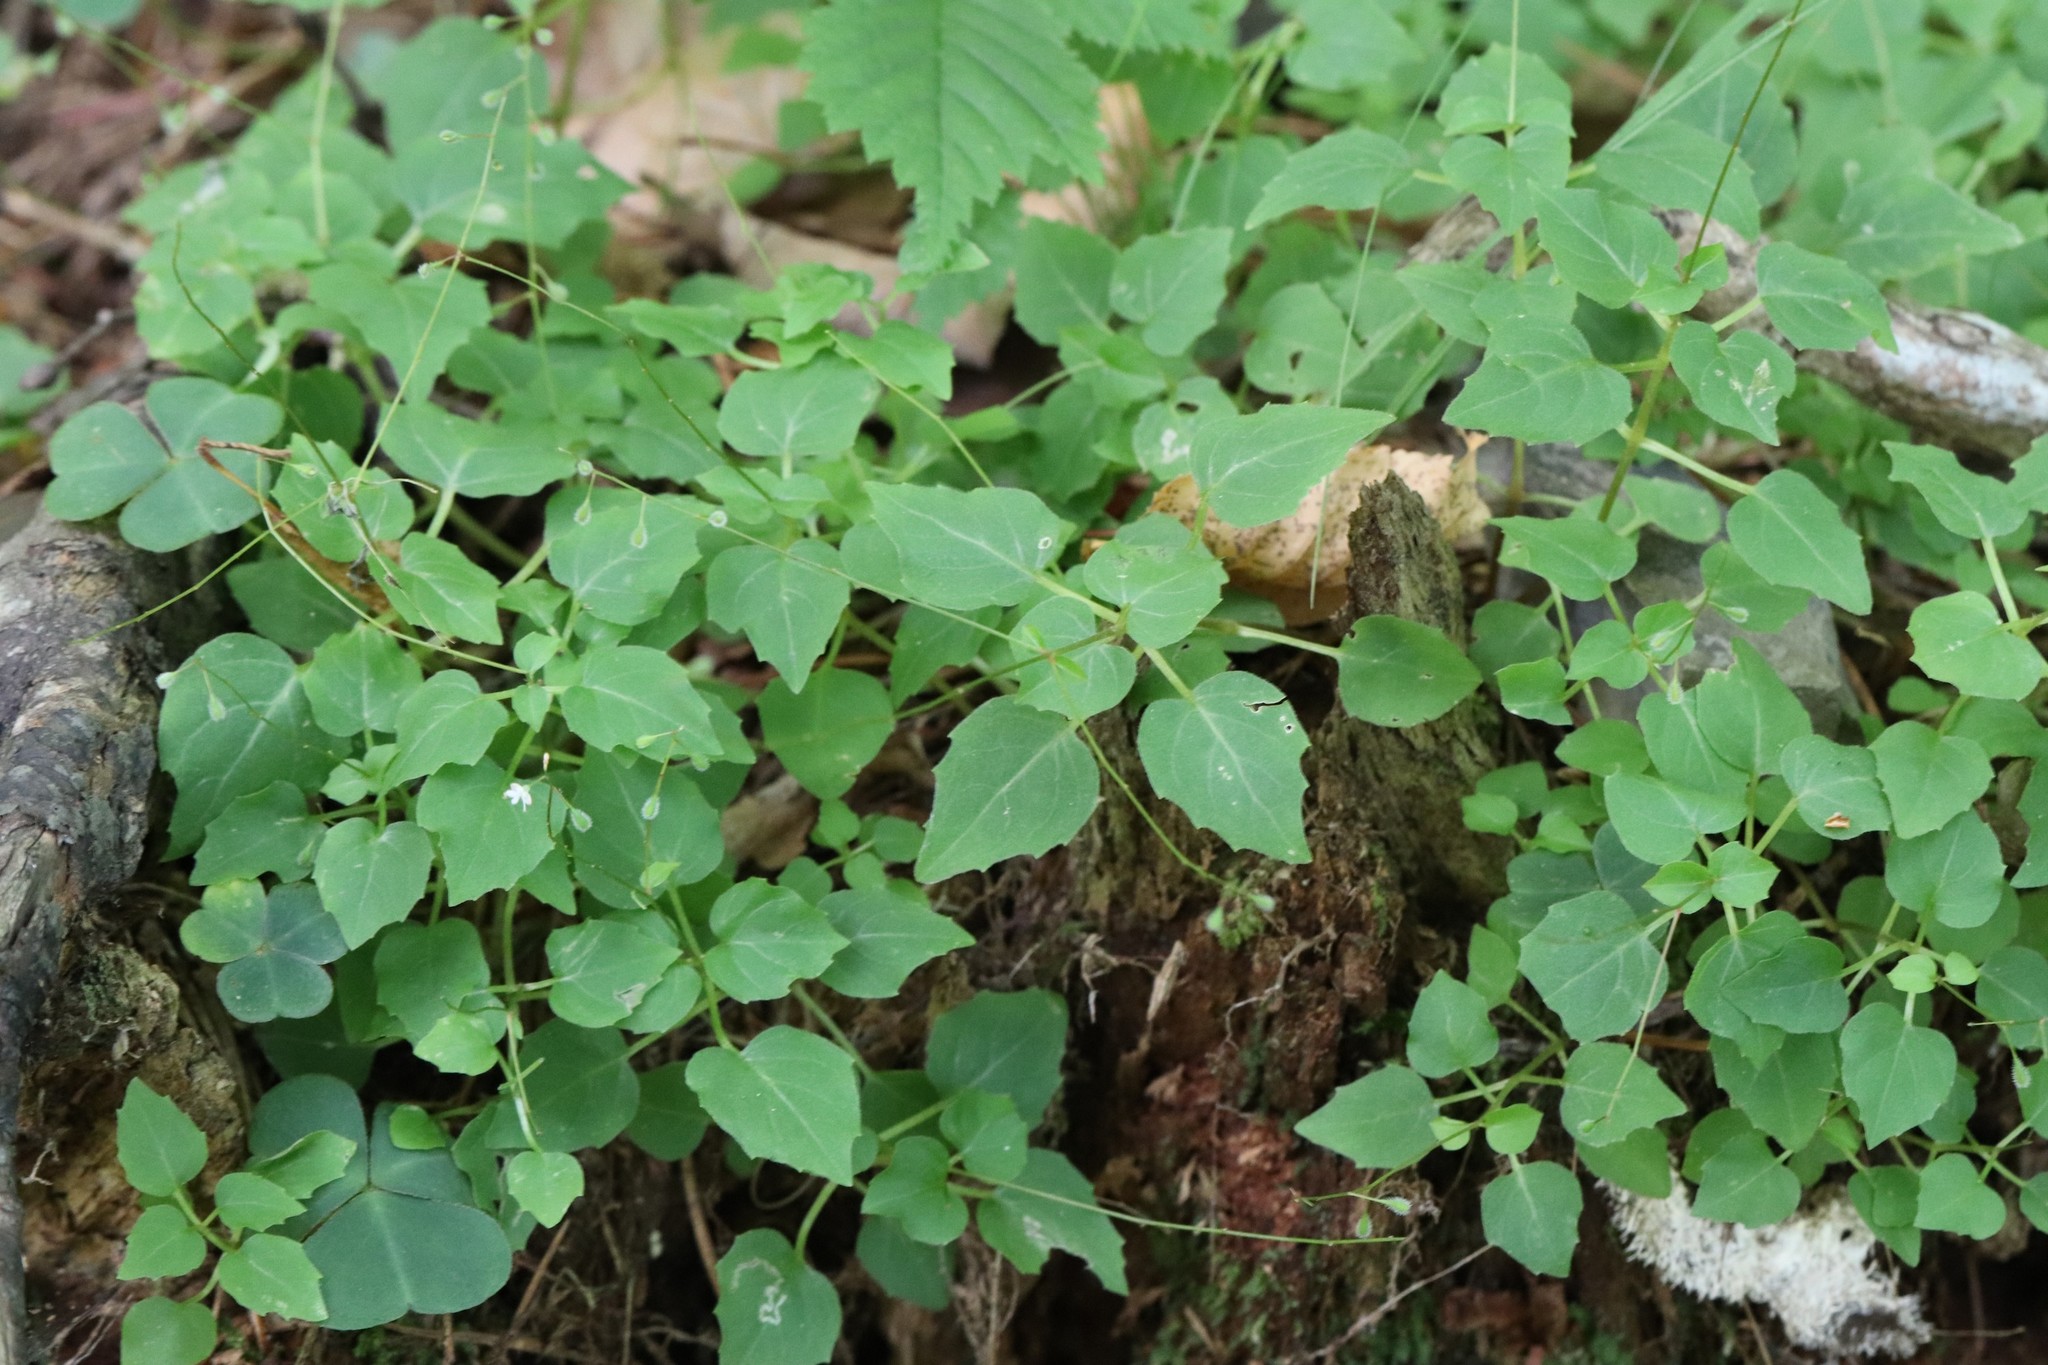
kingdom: Plantae
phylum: Tracheophyta
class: Magnoliopsida
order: Myrtales
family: Onagraceae
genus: Circaea
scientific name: Circaea alpina
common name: Alpine enchanter's-nightshade
